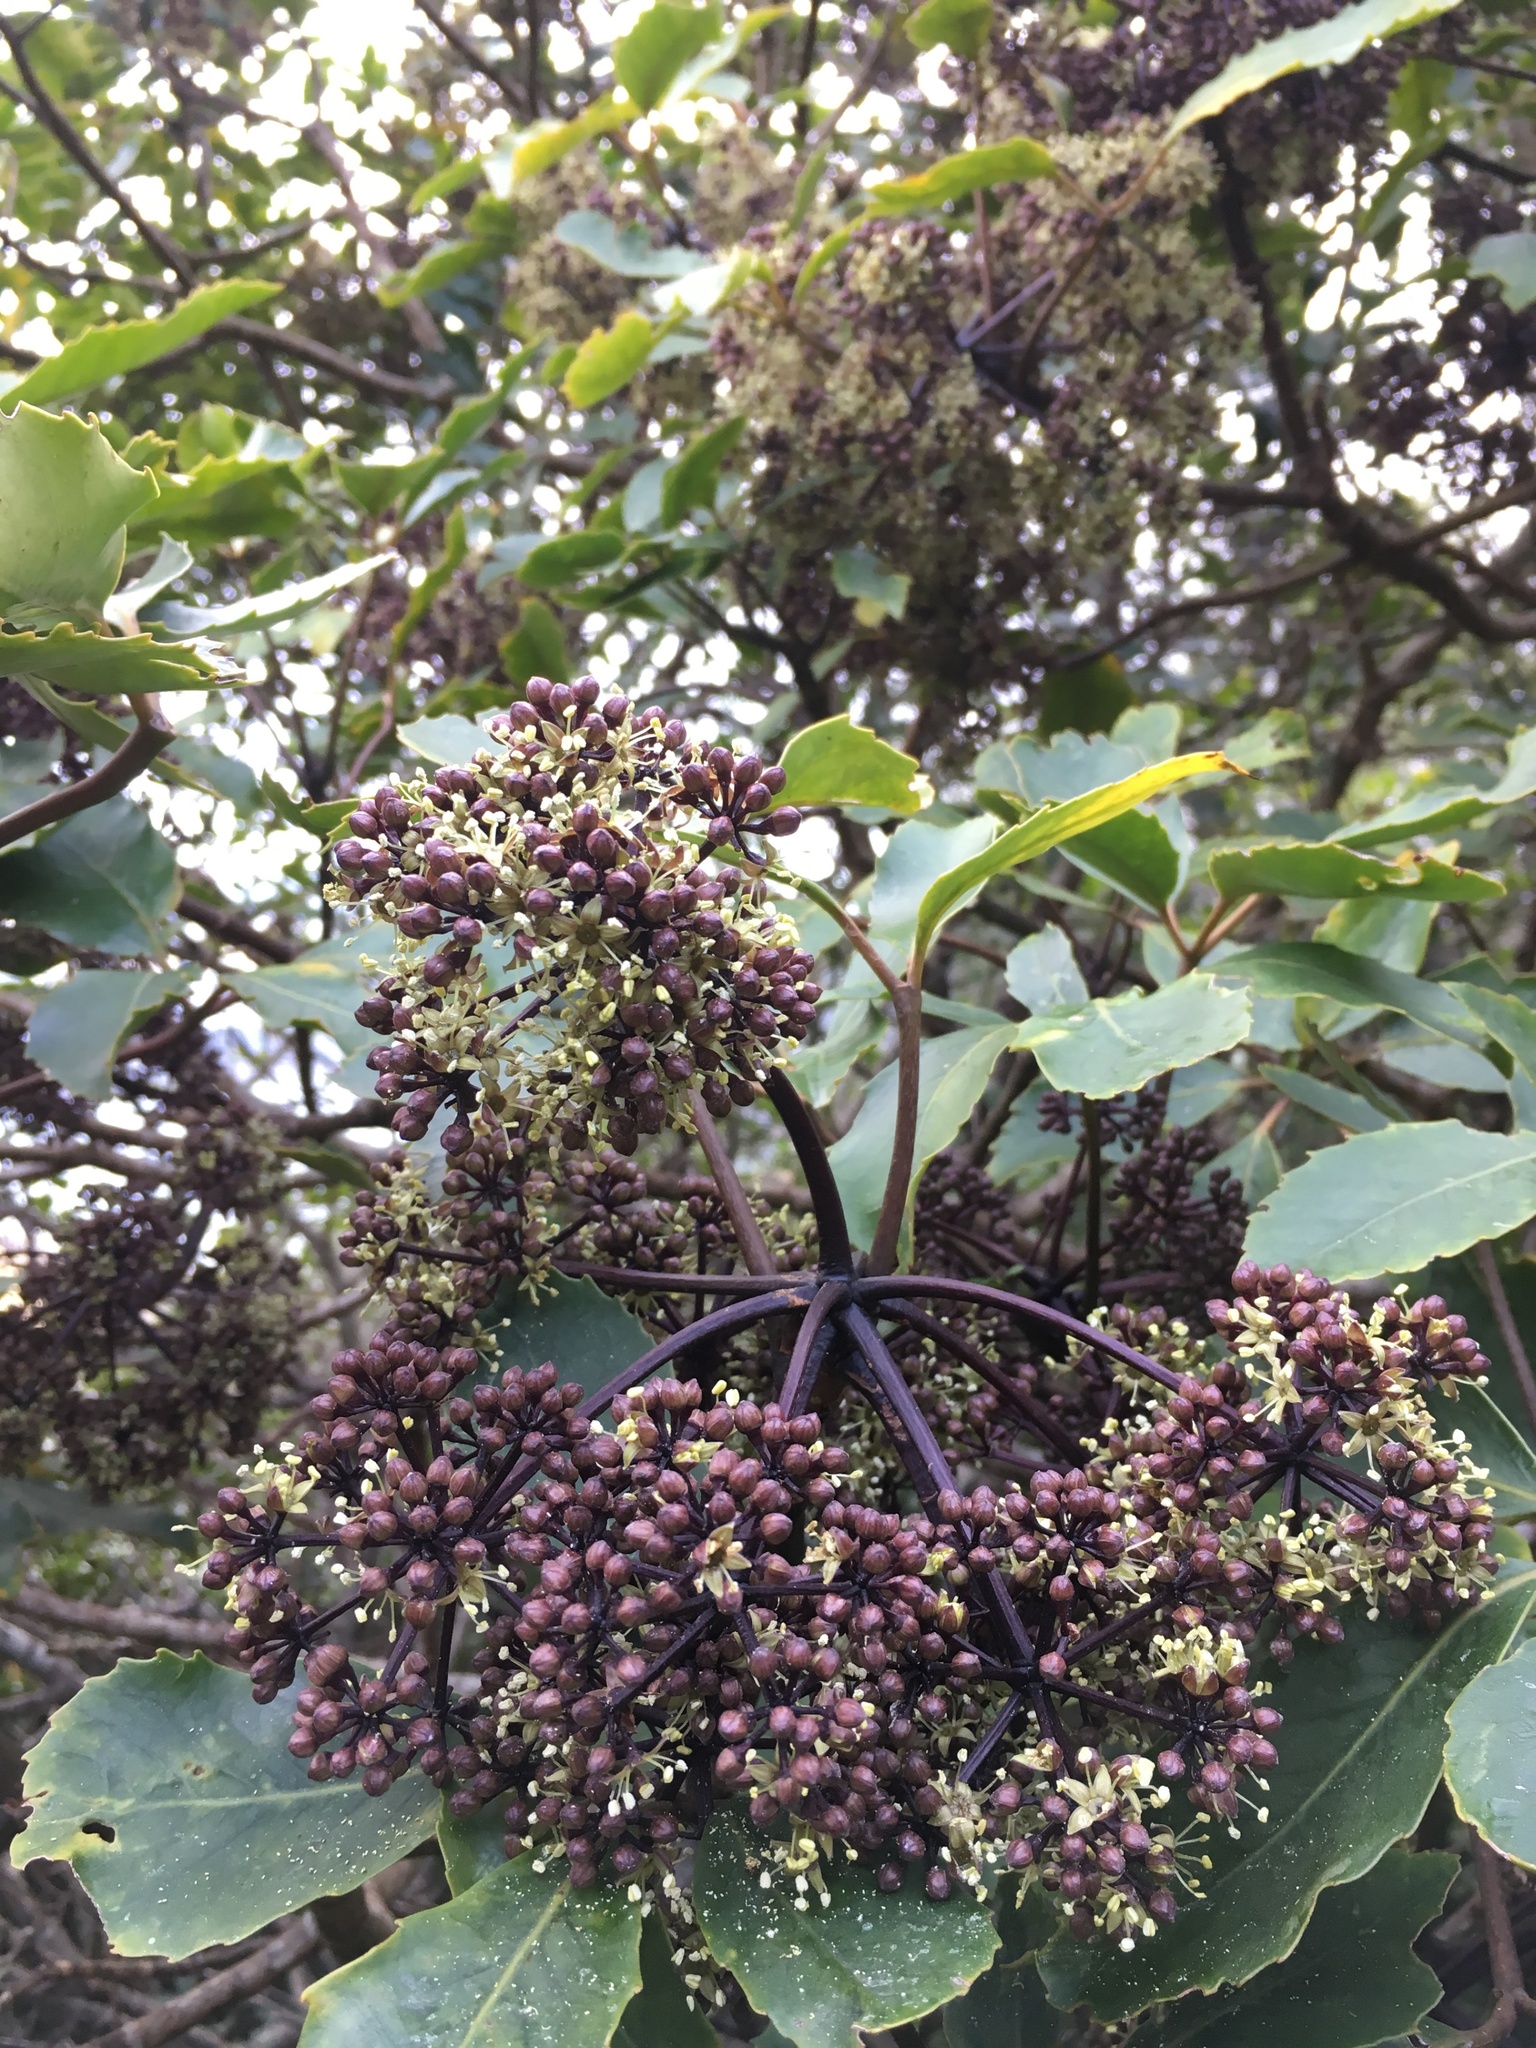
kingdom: Plantae
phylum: Tracheophyta
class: Magnoliopsida
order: Apiales
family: Araliaceae
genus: Neopanax
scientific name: Neopanax arboreus
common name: Five-fingers
